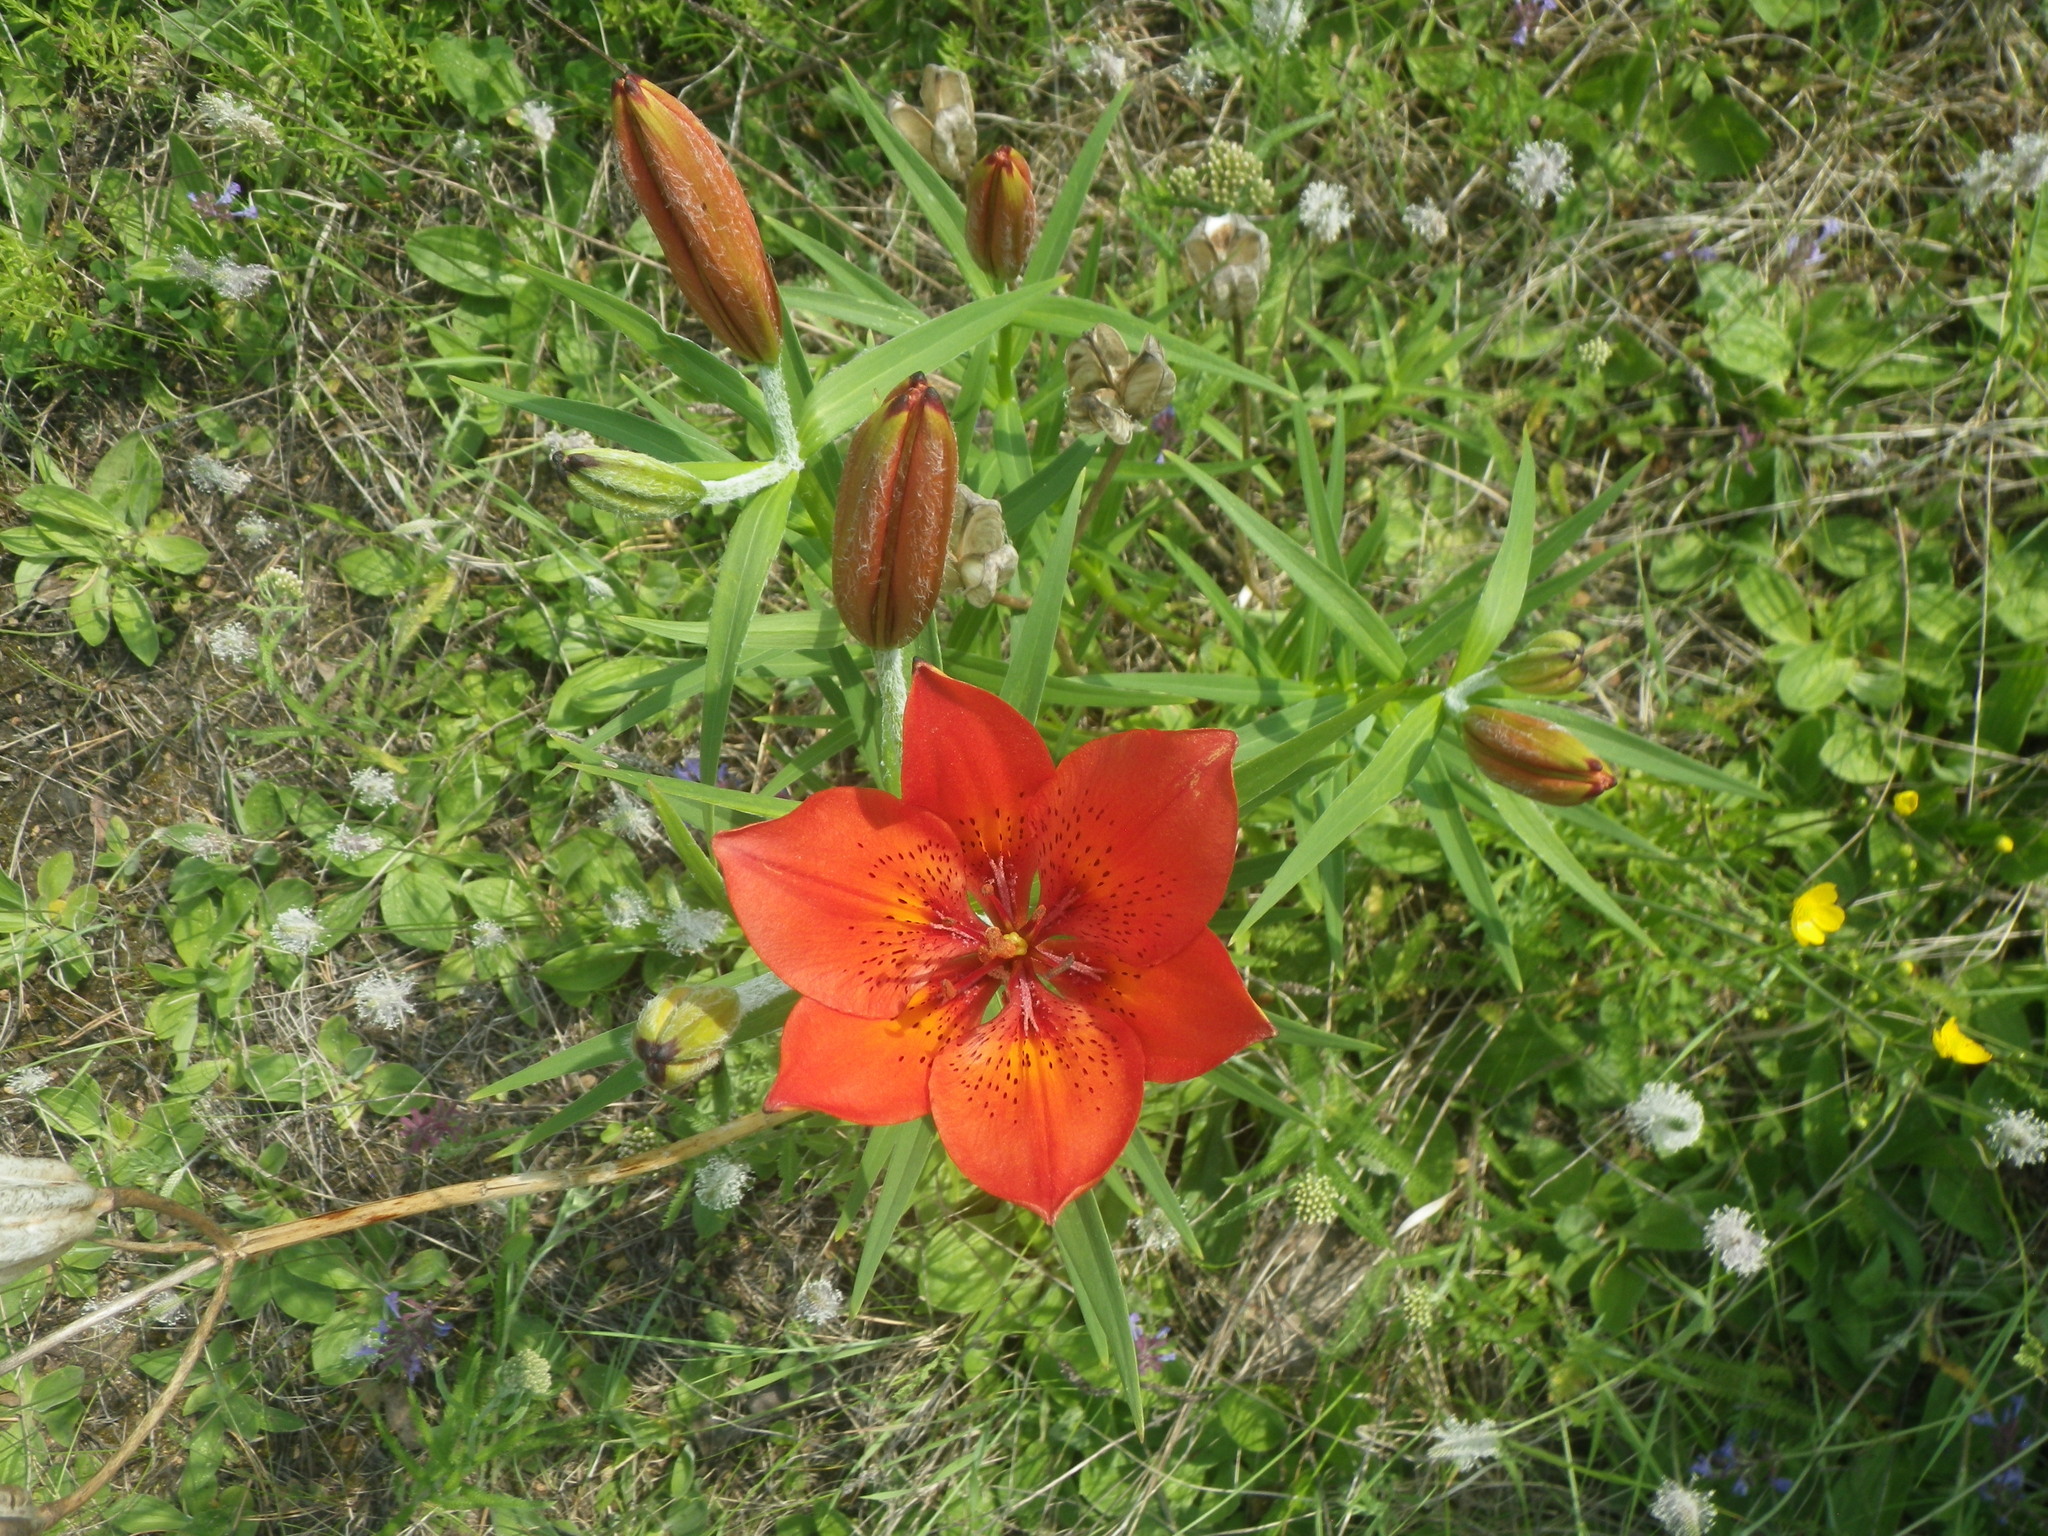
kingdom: Plantae
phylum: Tracheophyta
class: Liliopsida
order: Liliales
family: Liliaceae
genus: Lilium
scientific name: Lilium pensylvanicum
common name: Candlestick lily
